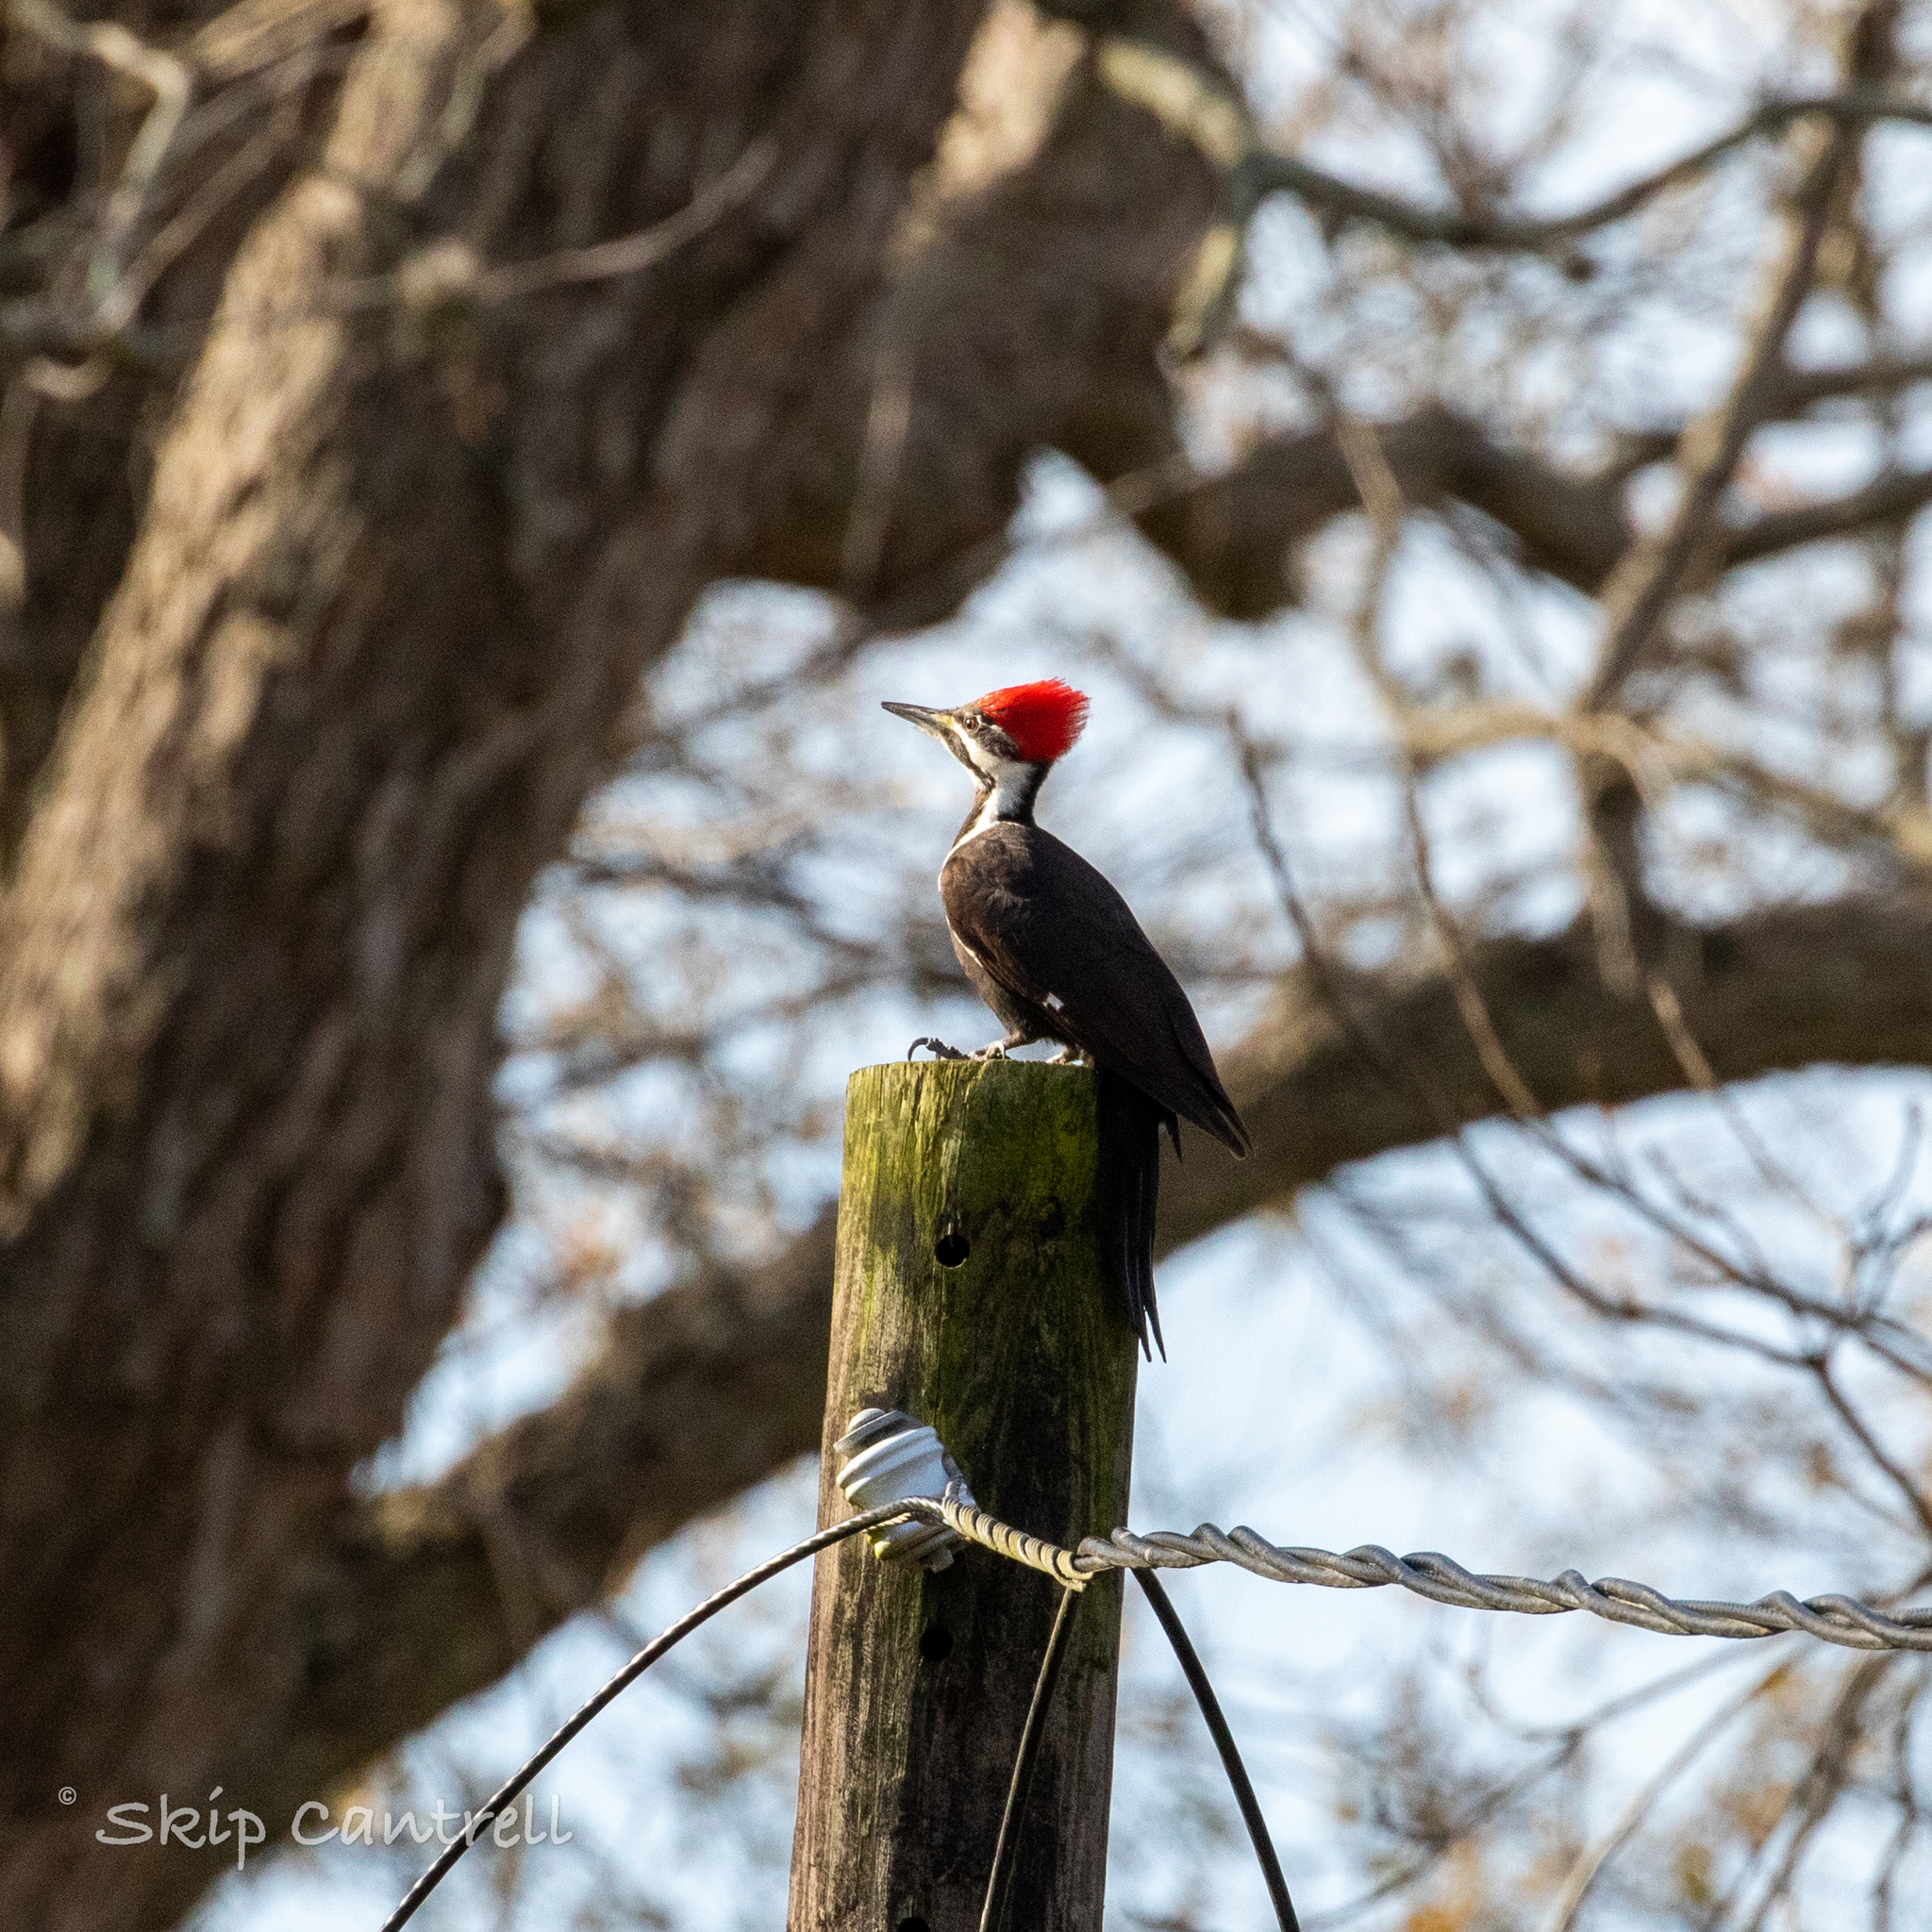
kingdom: Animalia
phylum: Chordata
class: Aves
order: Piciformes
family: Picidae
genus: Dryocopus
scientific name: Dryocopus pileatus
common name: Pileated woodpecker
